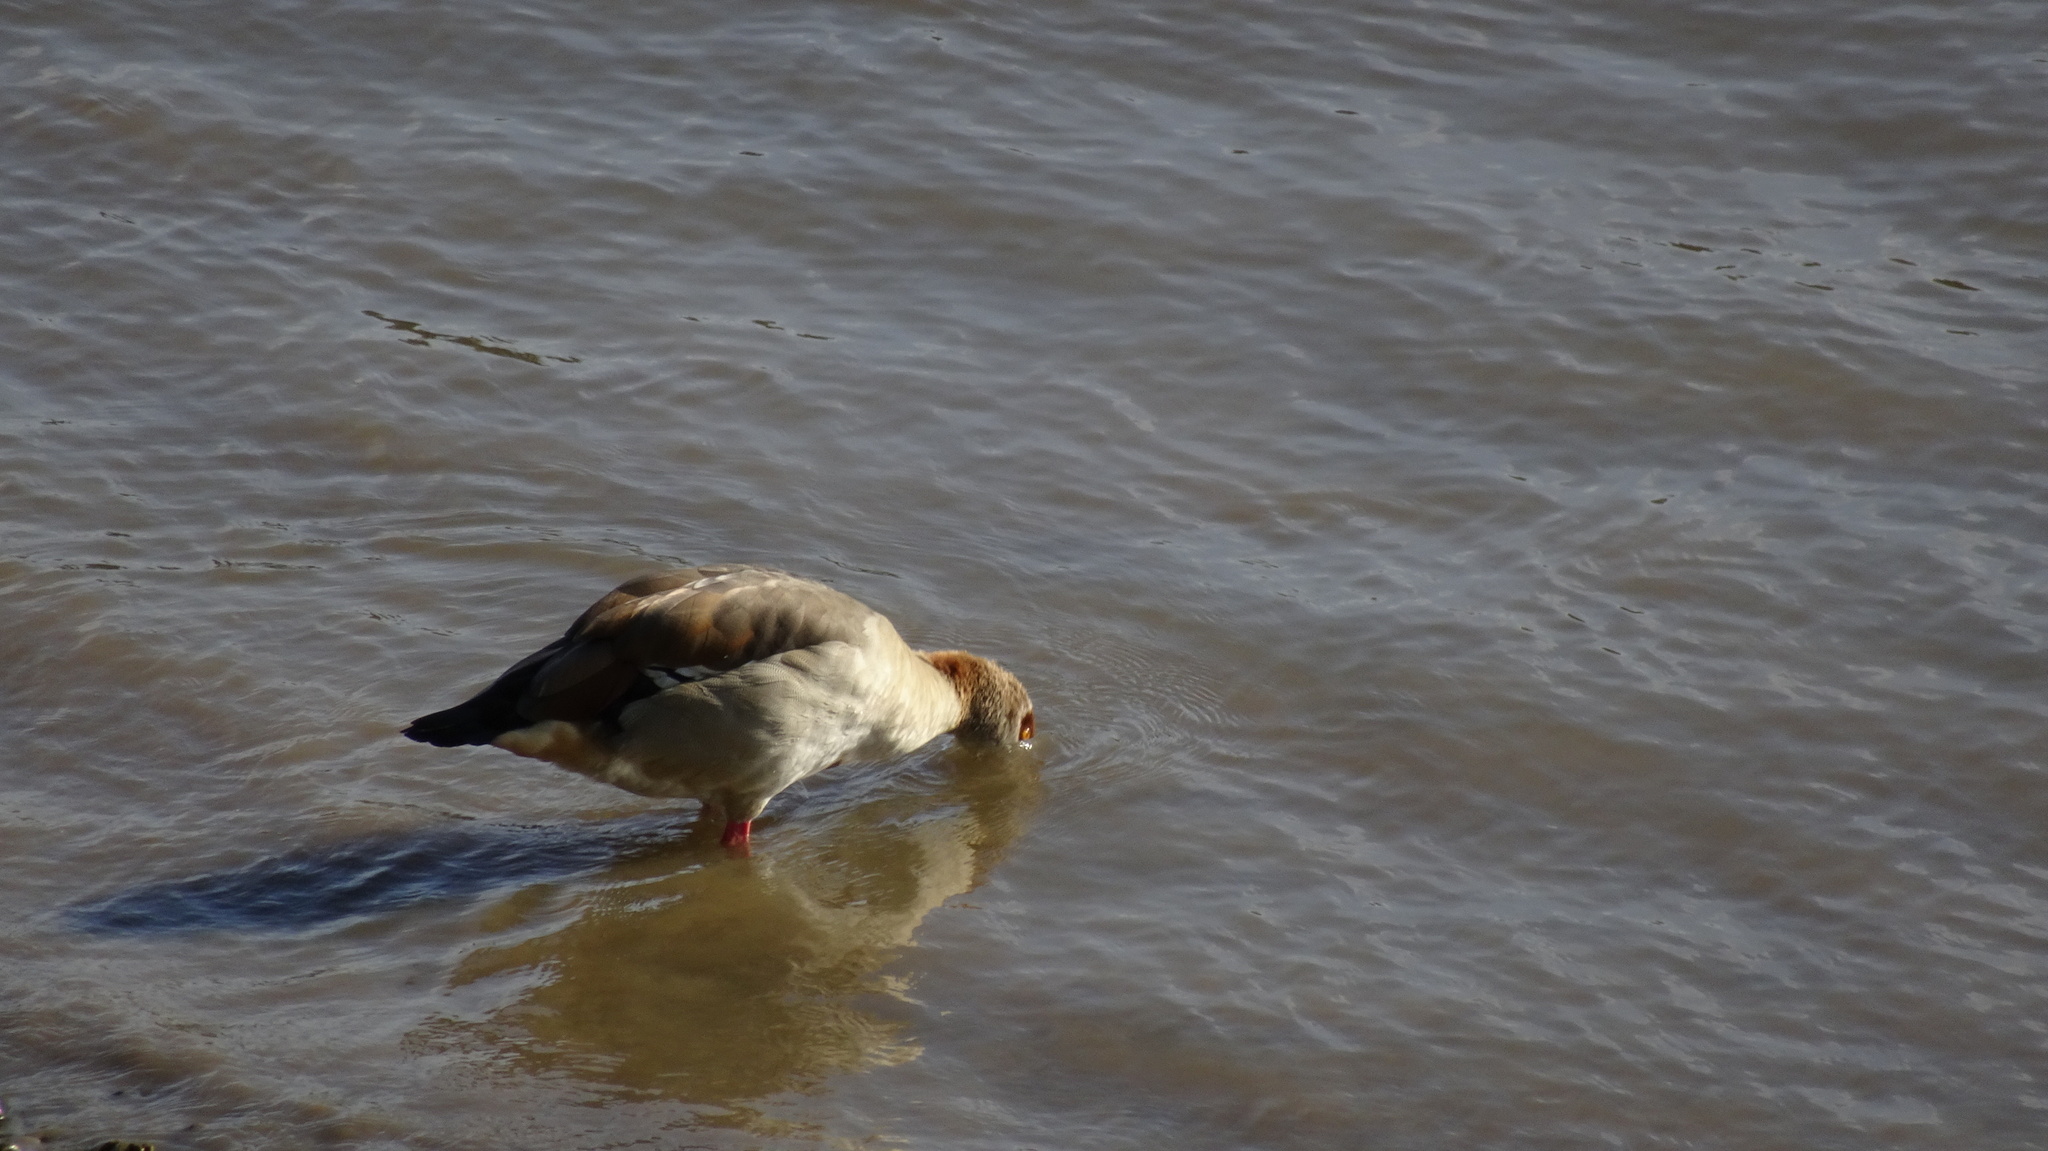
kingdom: Animalia
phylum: Chordata
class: Aves
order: Anseriformes
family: Anatidae
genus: Anas
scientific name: Anas platyrhynchos
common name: Mallard
